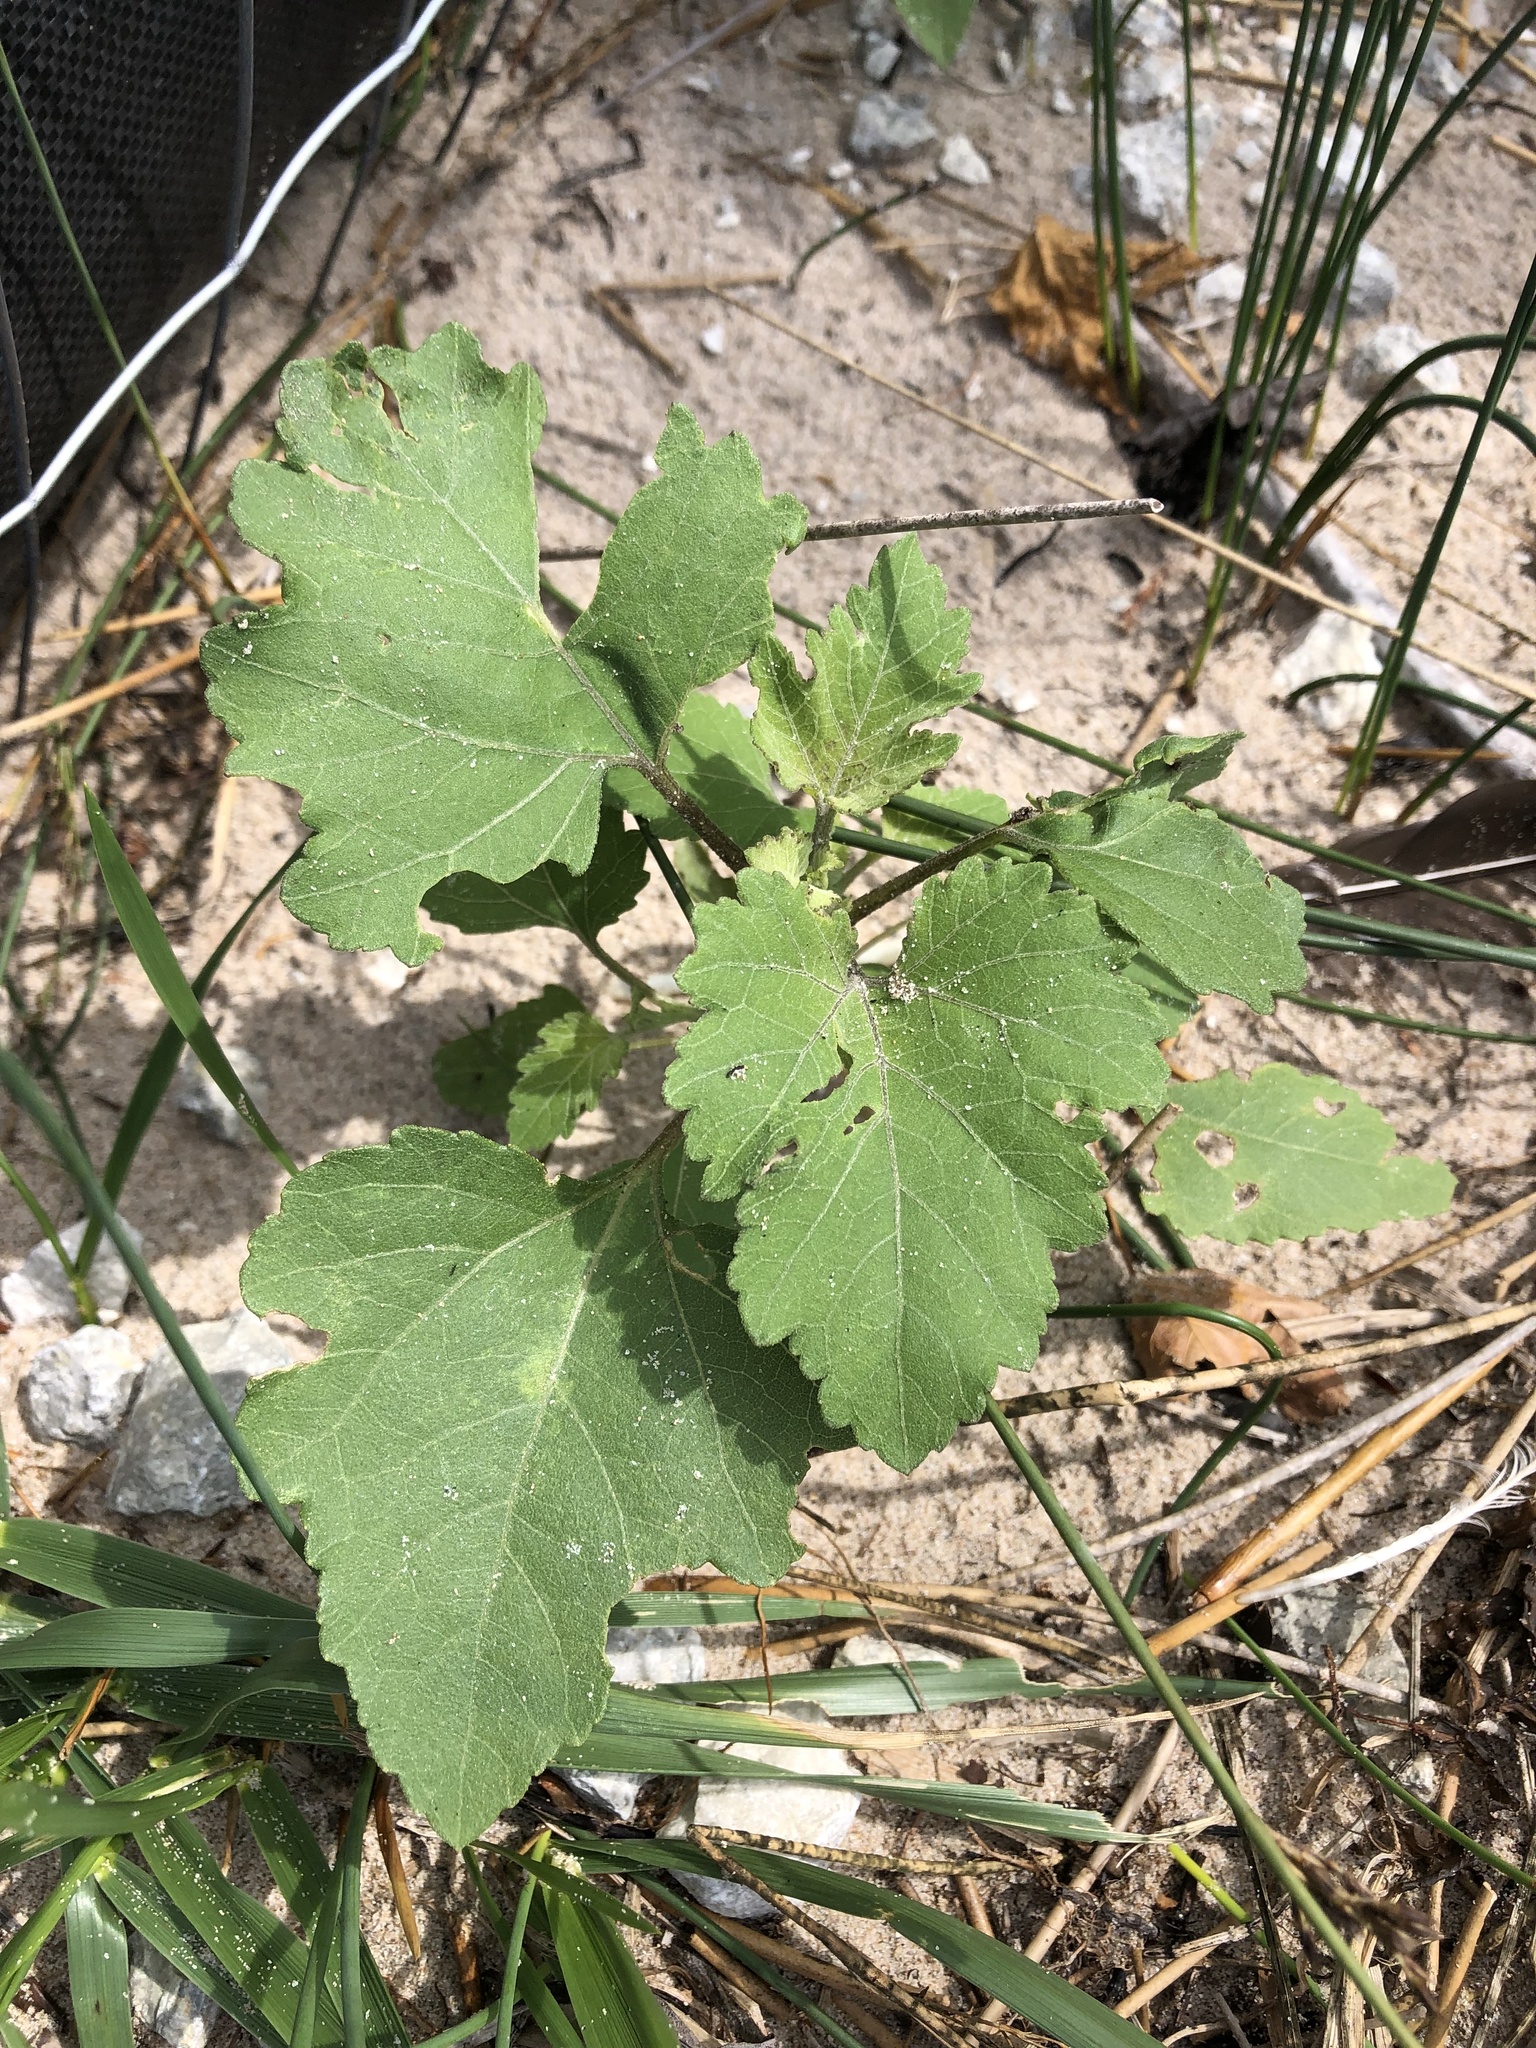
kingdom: Plantae
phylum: Tracheophyta
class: Magnoliopsida
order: Asterales
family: Asteraceae
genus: Xanthium
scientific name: Xanthium strumarium
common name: Rough cocklebur
